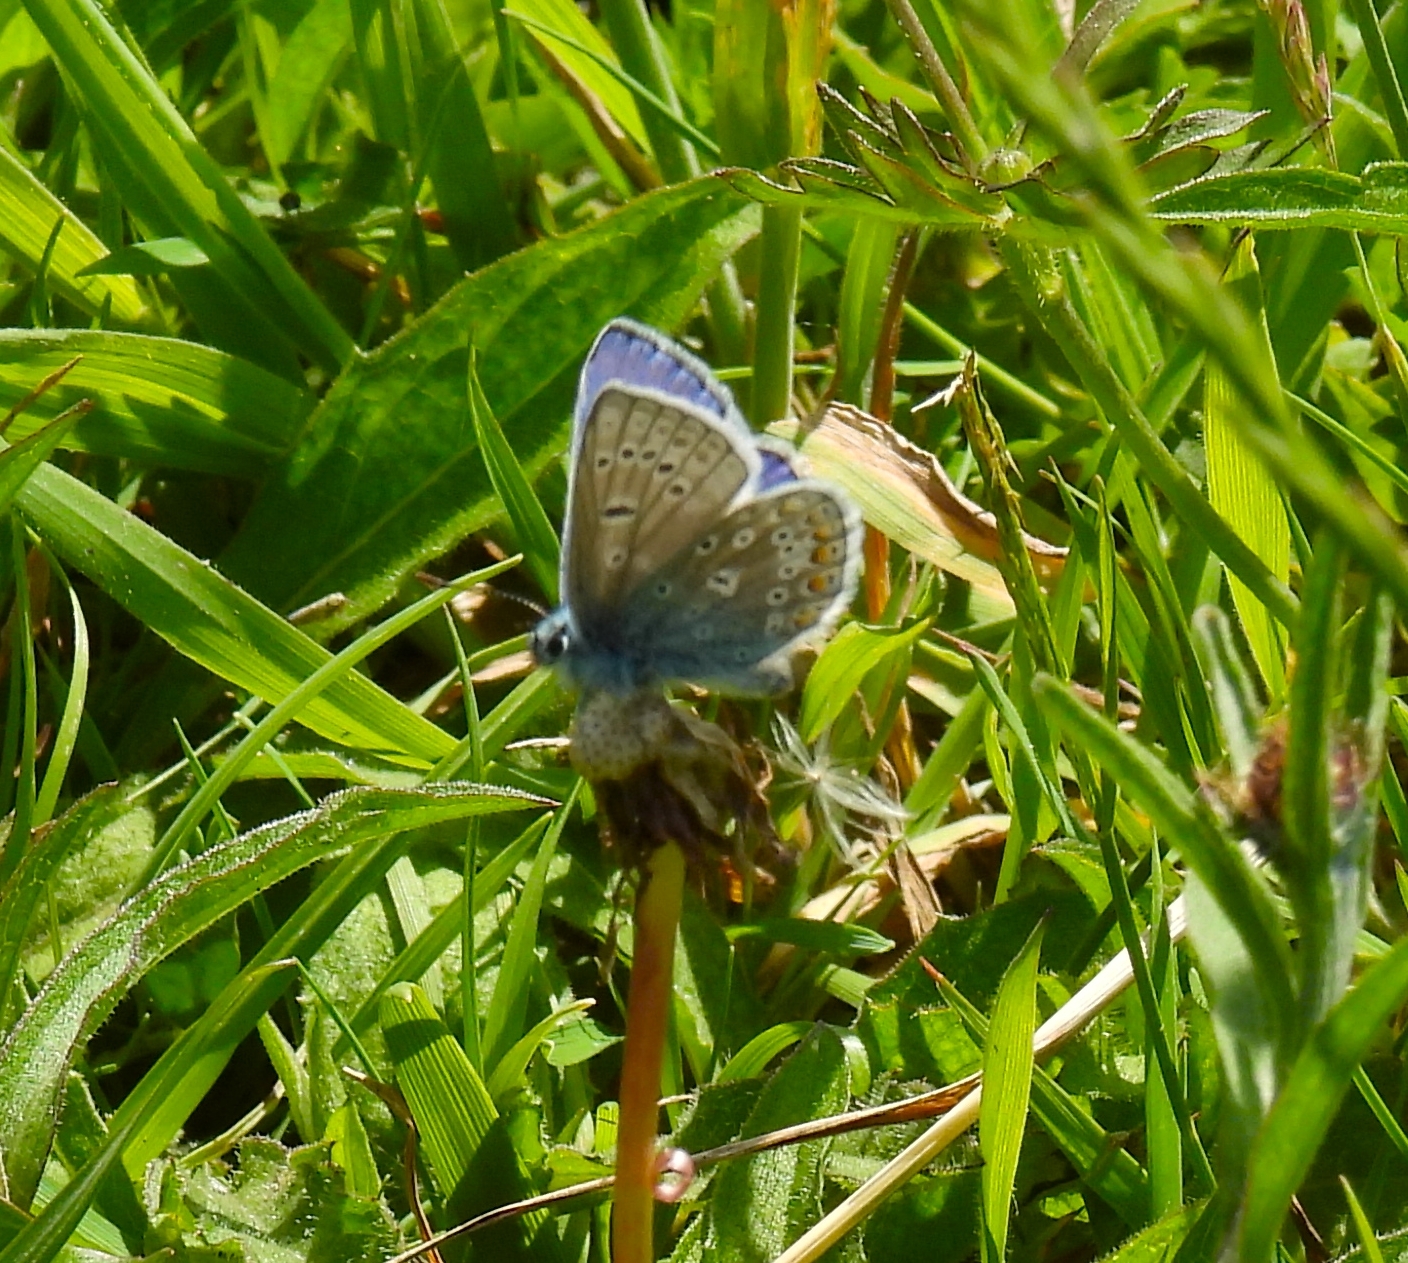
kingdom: Animalia
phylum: Arthropoda
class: Insecta
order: Lepidoptera
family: Lycaenidae
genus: Polyommatus
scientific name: Polyommatus icarus
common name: Common blue
